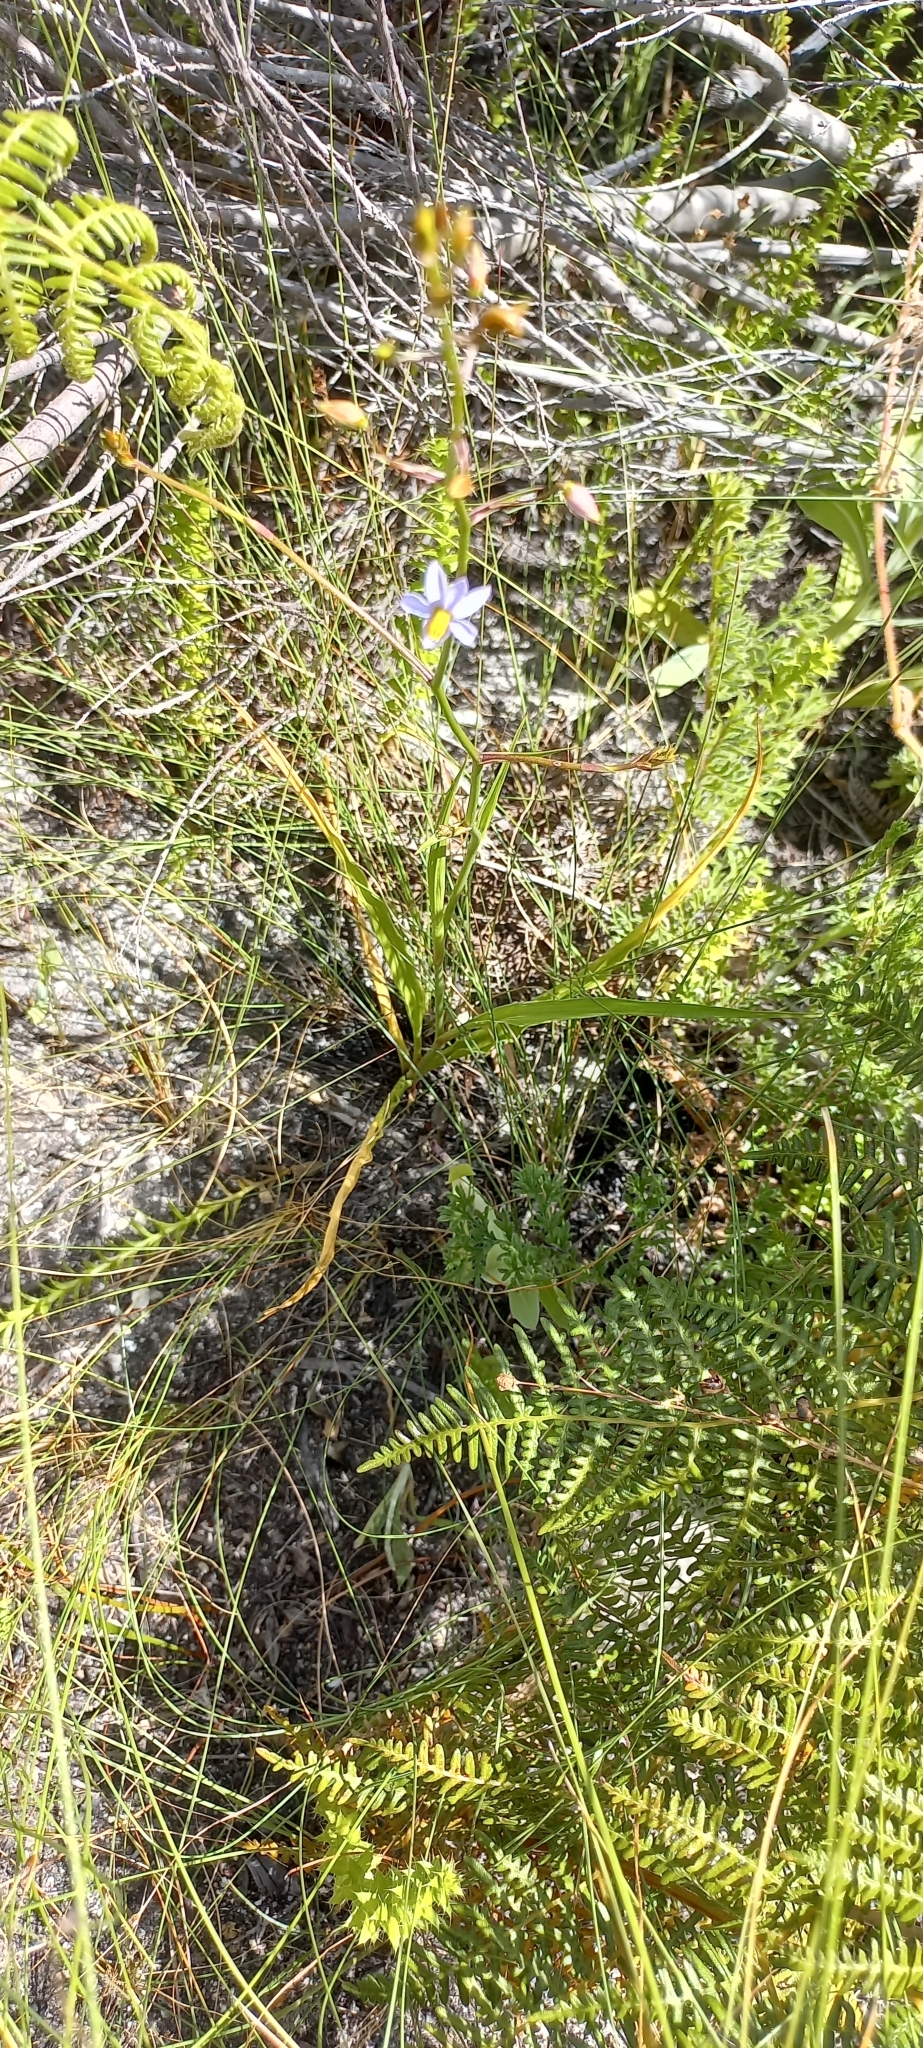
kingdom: Plantae
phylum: Tracheophyta
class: Liliopsida
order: Asparagales
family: Tecophilaeaceae
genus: Cyanella
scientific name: Cyanella hyacinthoides
